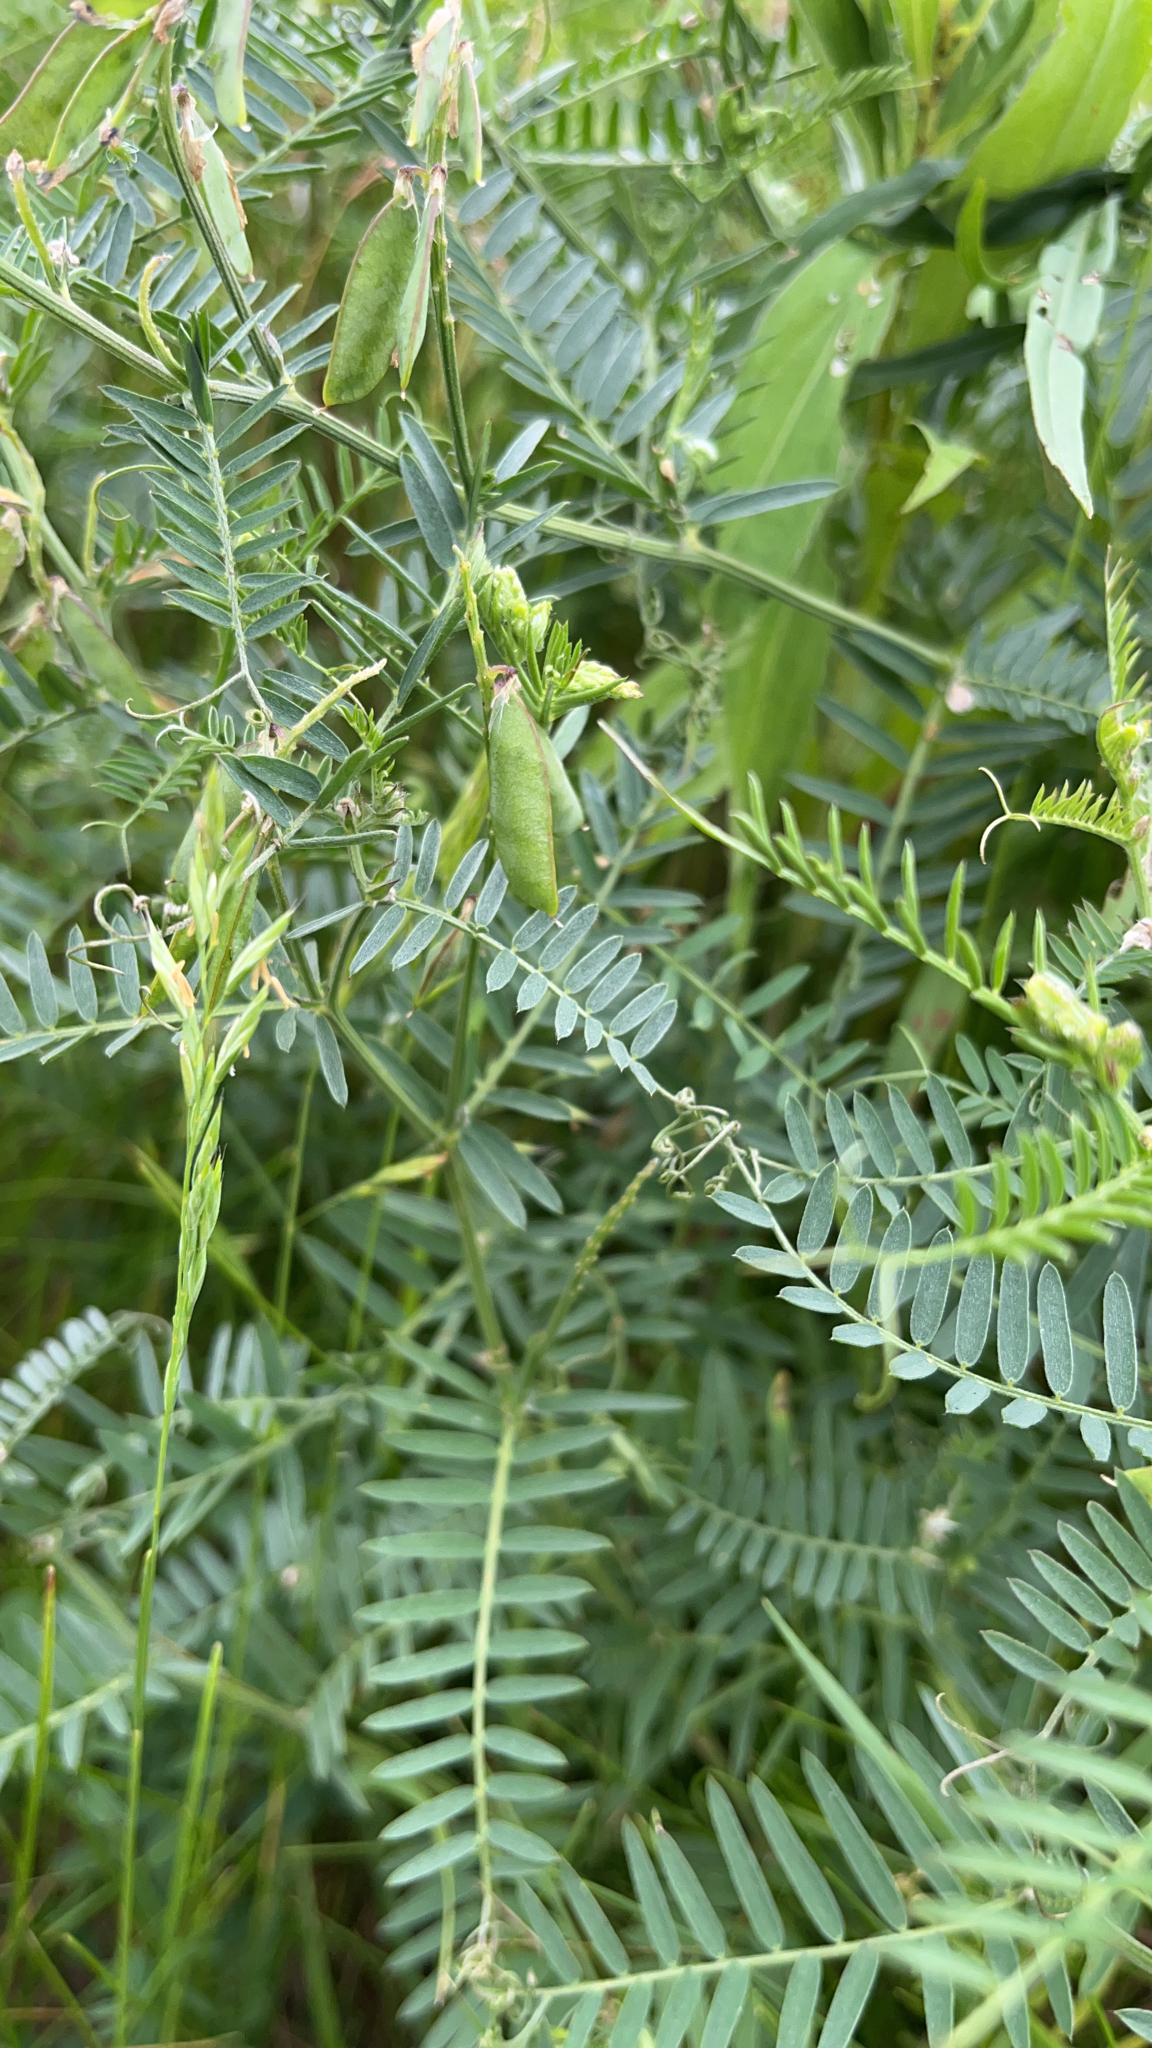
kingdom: Plantae
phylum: Tracheophyta
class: Magnoliopsida
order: Fabales
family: Fabaceae
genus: Vicia
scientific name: Vicia cracca
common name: Bird vetch
